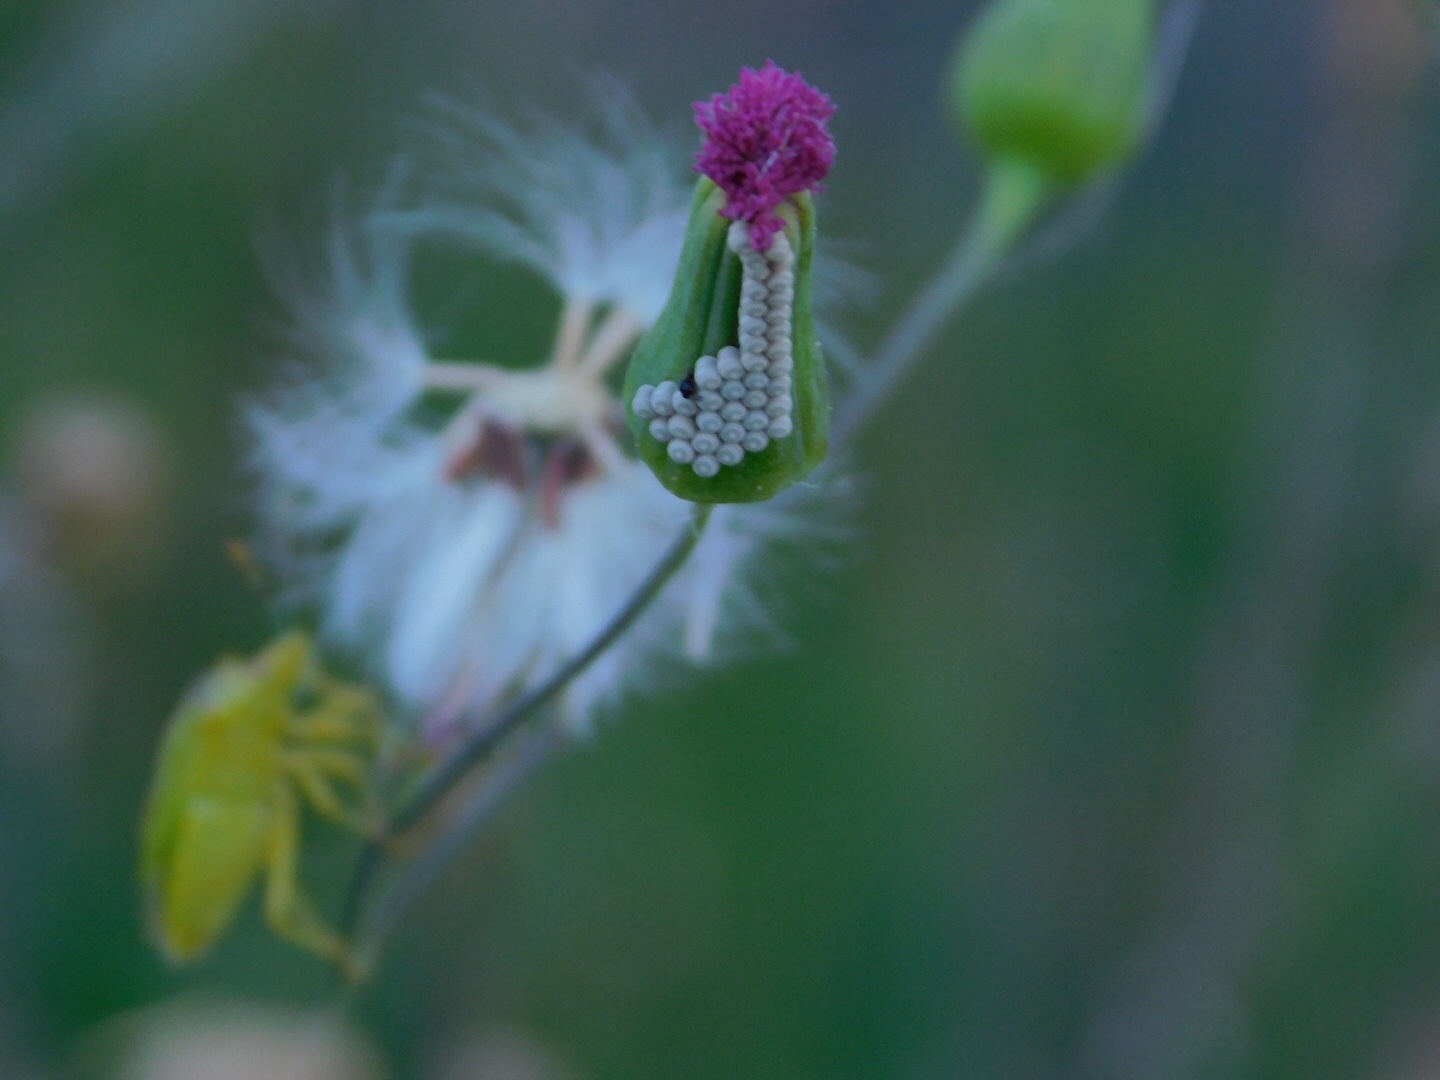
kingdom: Animalia
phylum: Arthropoda
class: Insecta
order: Hemiptera
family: Pentatomidae
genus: Thyanta
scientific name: Thyanta perditor
